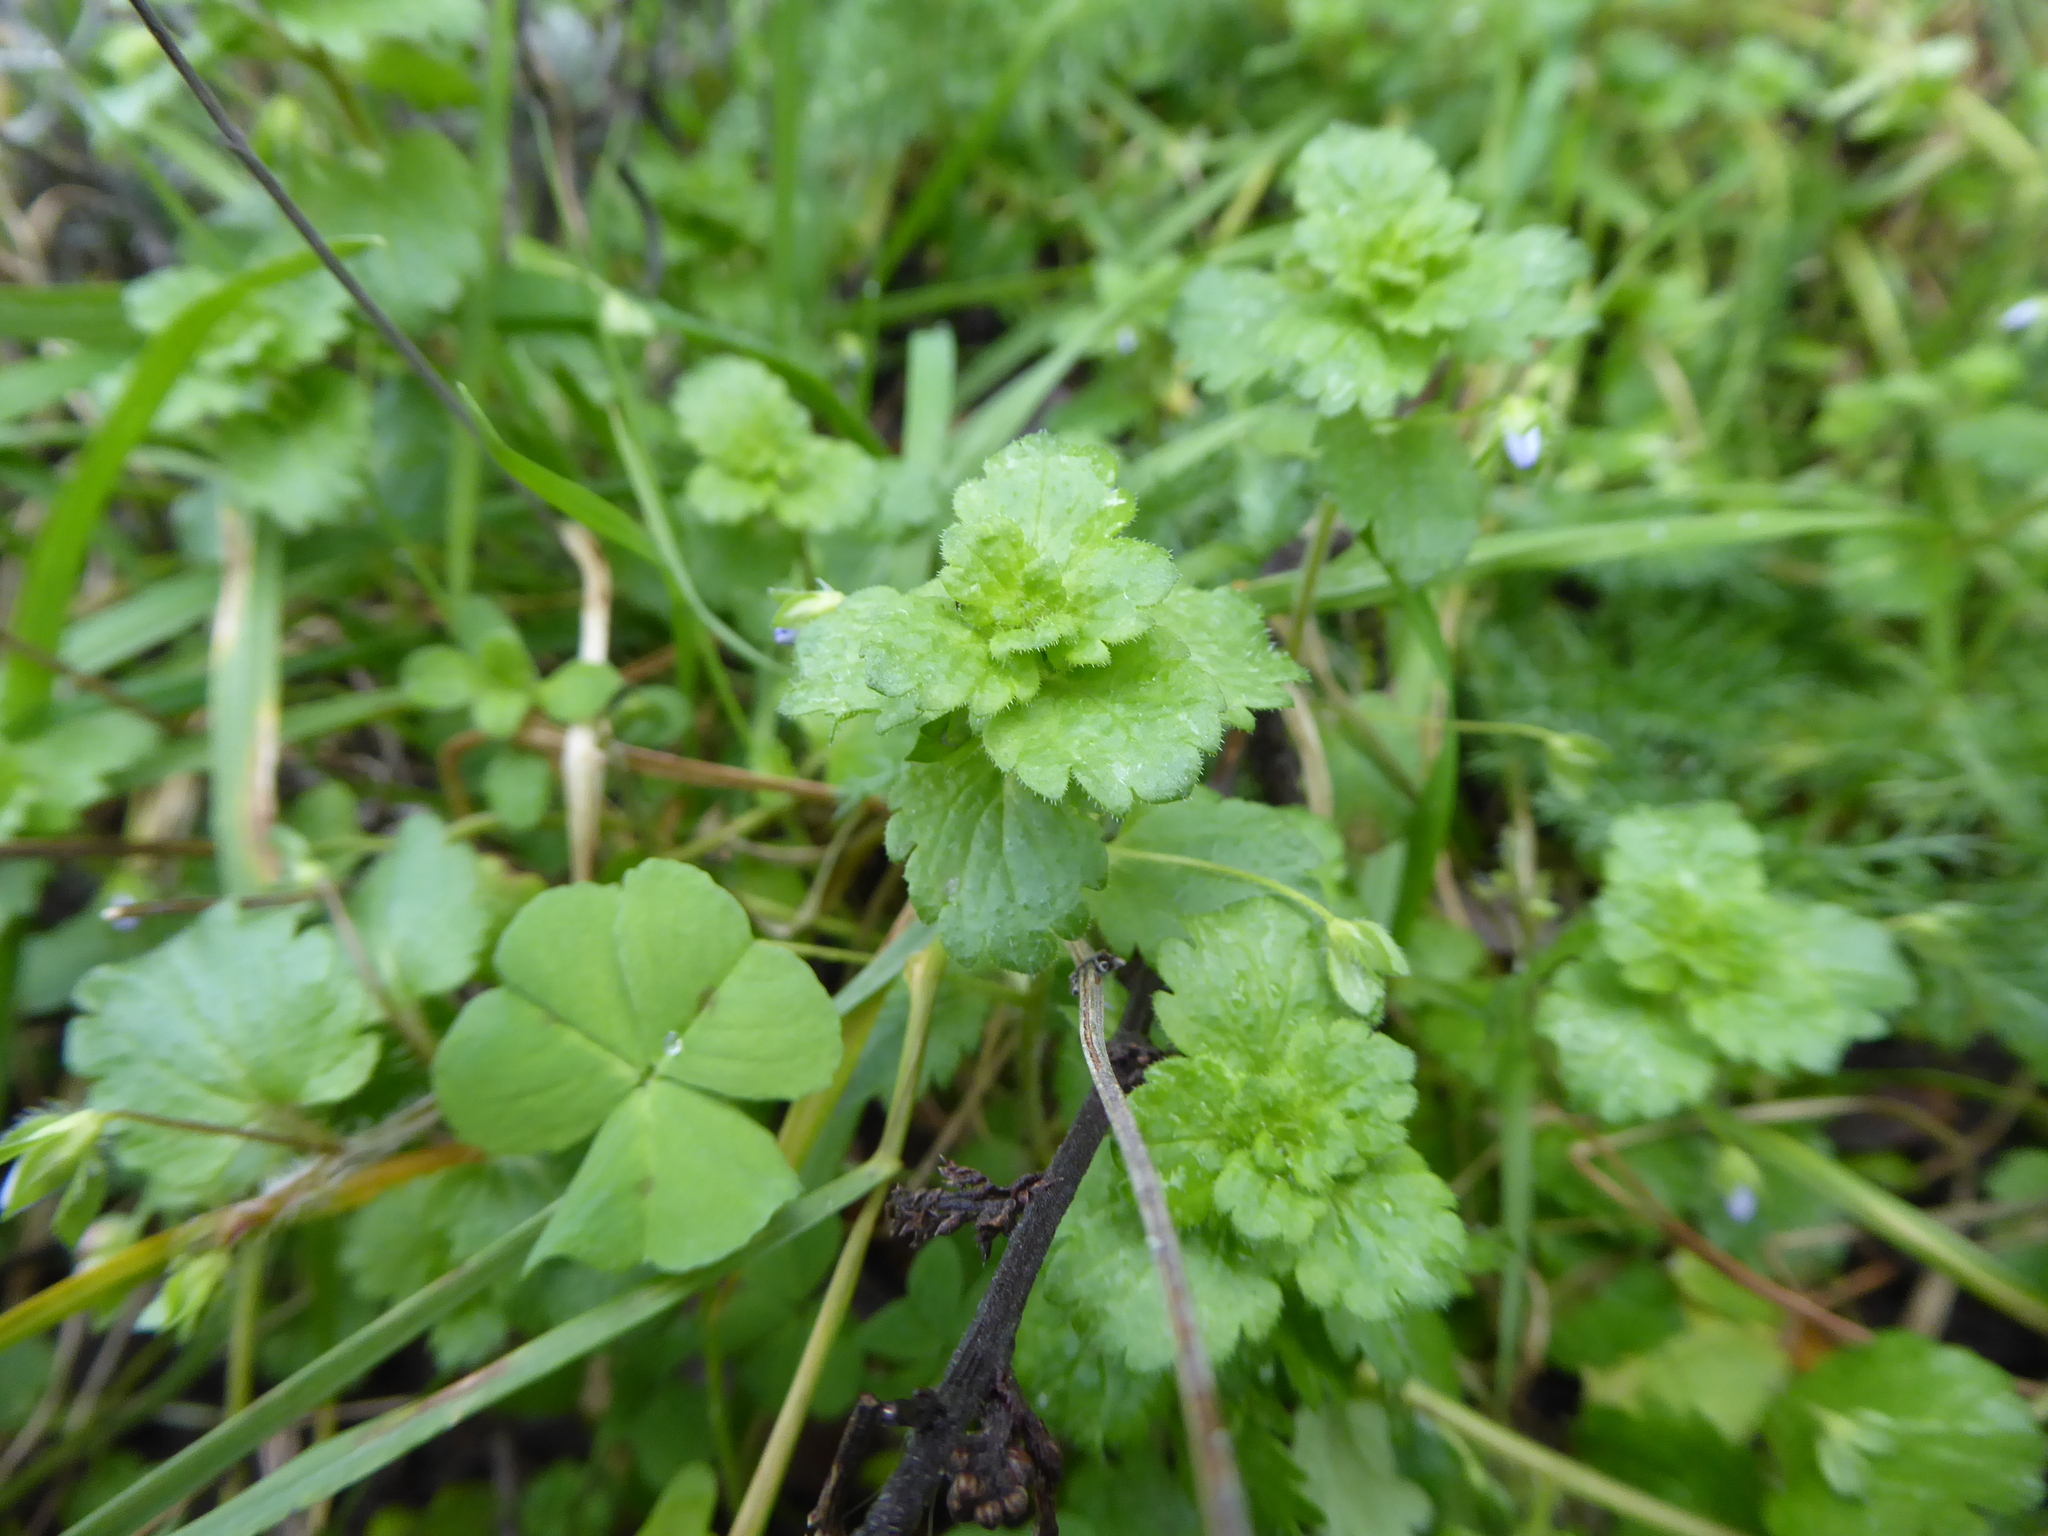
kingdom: Plantae
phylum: Tracheophyta
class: Magnoliopsida
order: Lamiales
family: Plantaginaceae
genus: Veronica
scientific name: Veronica persica
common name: Common field-speedwell
